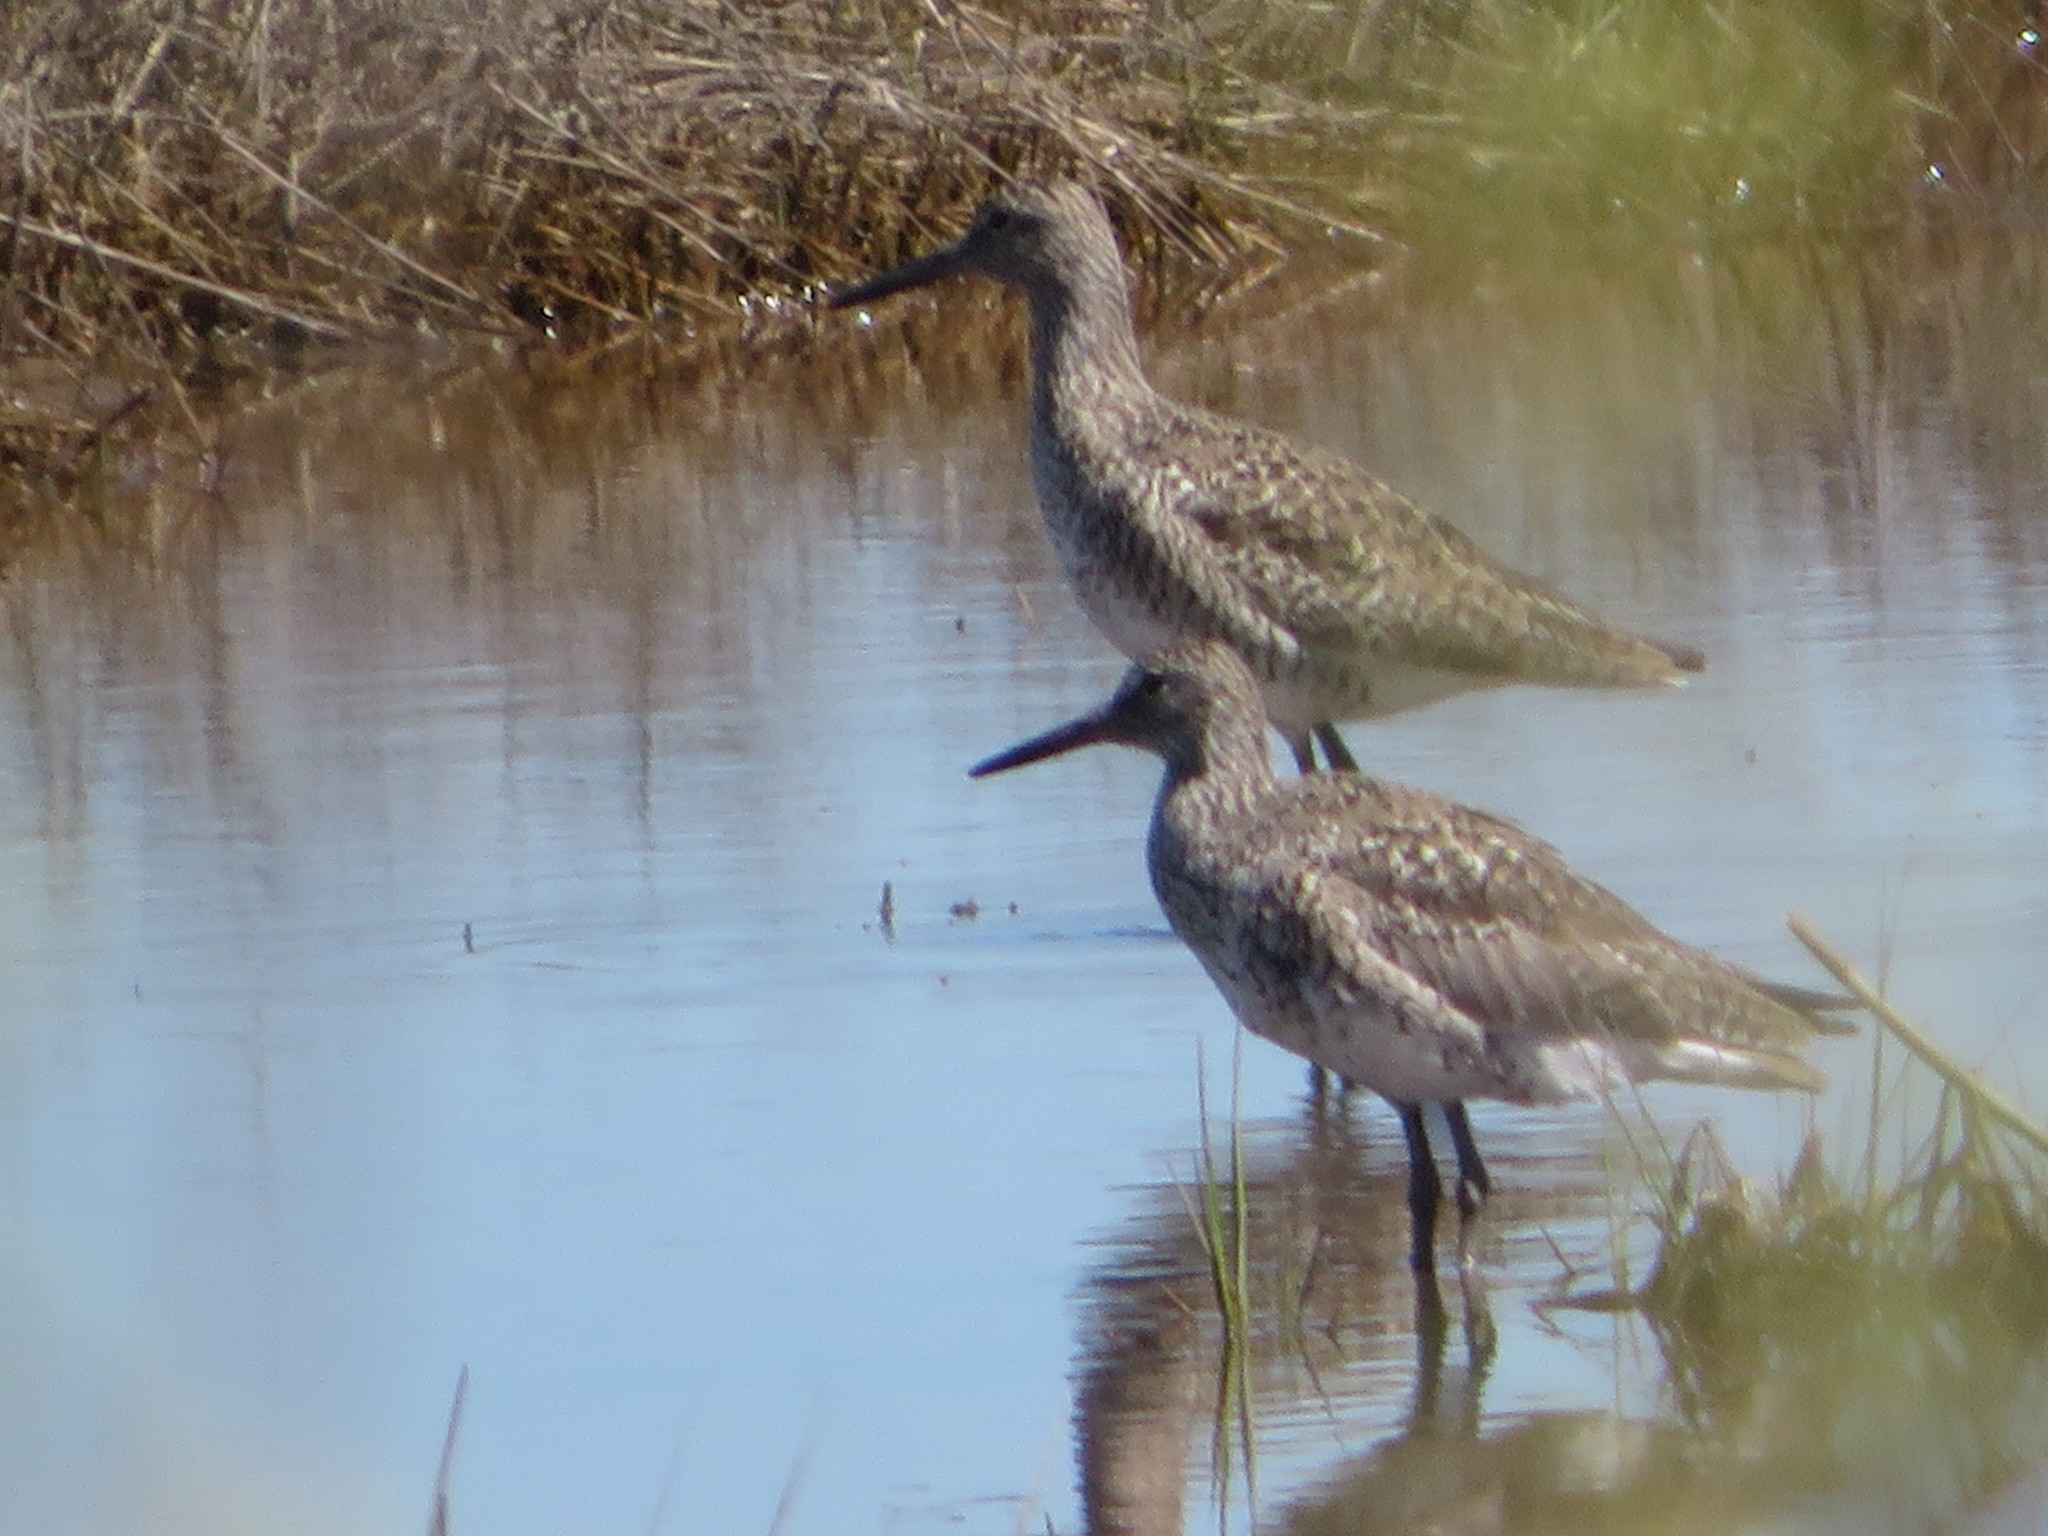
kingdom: Animalia
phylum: Chordata
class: Aves
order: Charadriiformes
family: Scolopacidae
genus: Tringa
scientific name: Tringa semipalmata
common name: Willet
